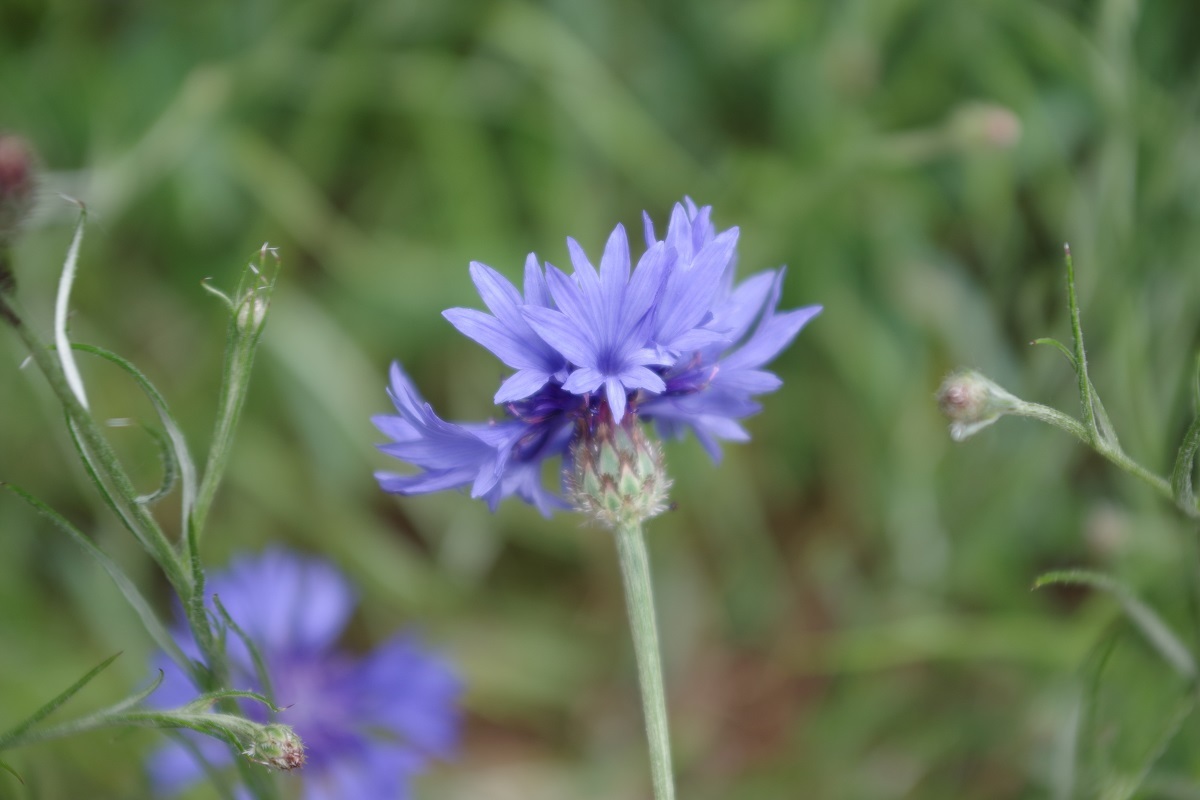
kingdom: Plantae
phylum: Tracheophyta
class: Magnoliopsida
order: Asterales
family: Asteraceae
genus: Centaurea
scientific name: Centaurea cyanus
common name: Cornflower
